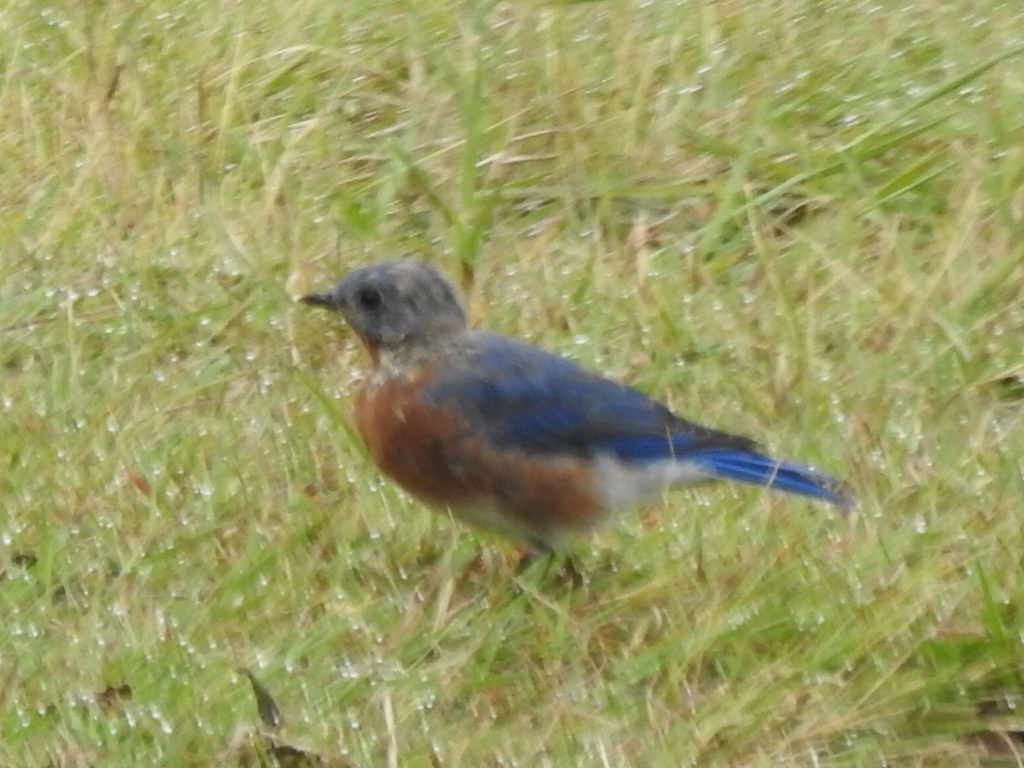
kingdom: Animalia
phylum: Chordata
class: Aves
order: Passeriformes
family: Turdidae
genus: Sialia
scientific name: Sialia sialis
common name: Eastern bluebird
